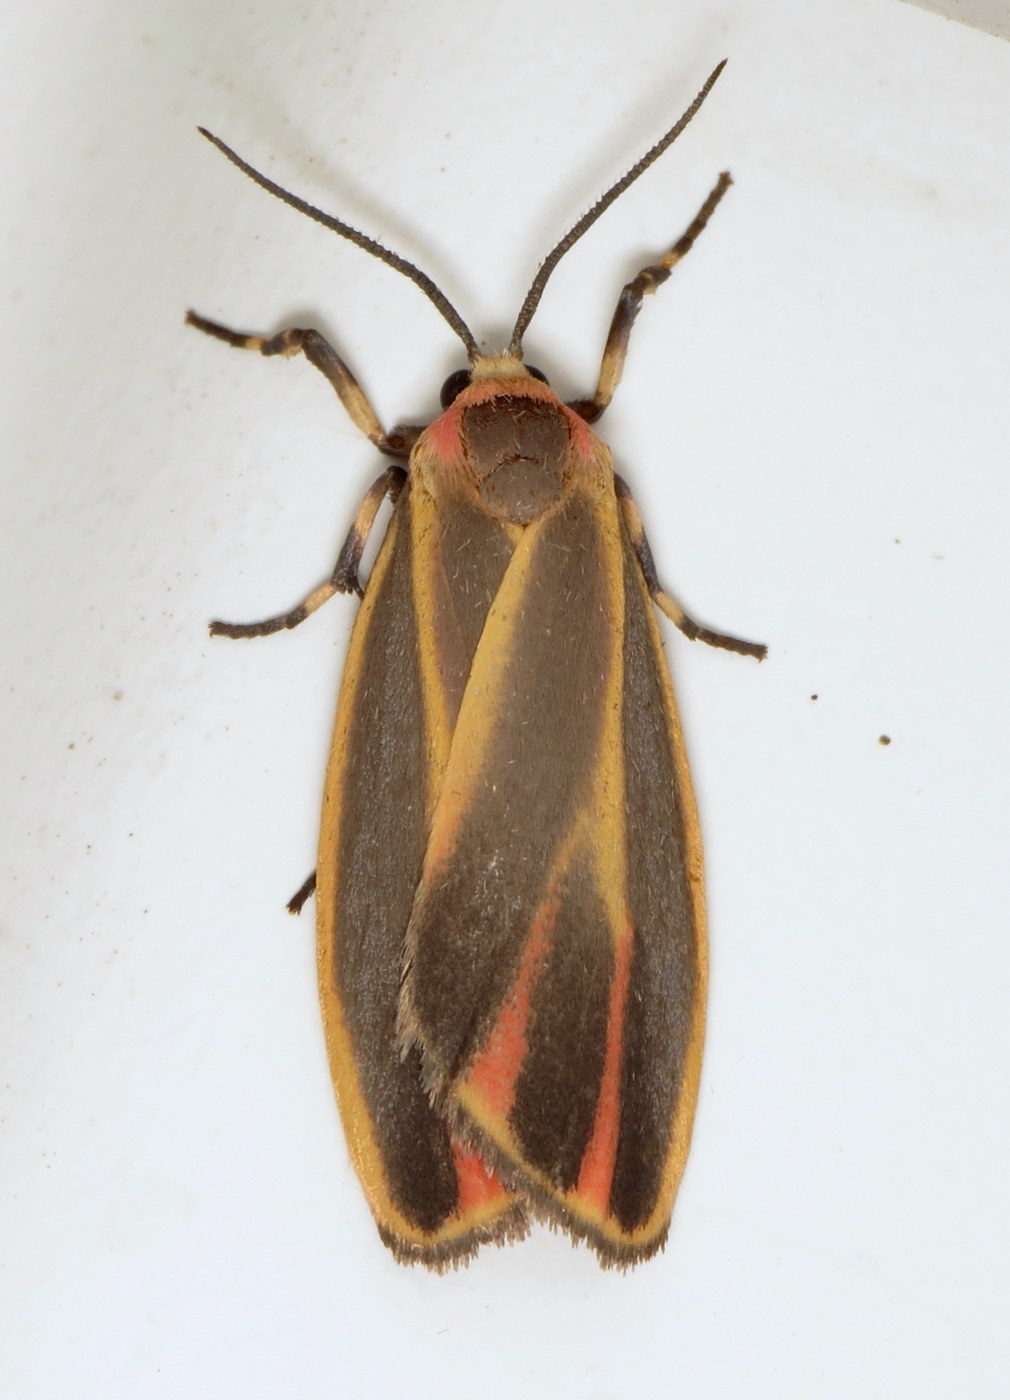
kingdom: Animalia
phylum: Arthropoda
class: Insecta
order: Lepidoptera
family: Erebidae
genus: Hypoprepia
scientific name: Hypoprepia fucosa
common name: Painted lichen moth
